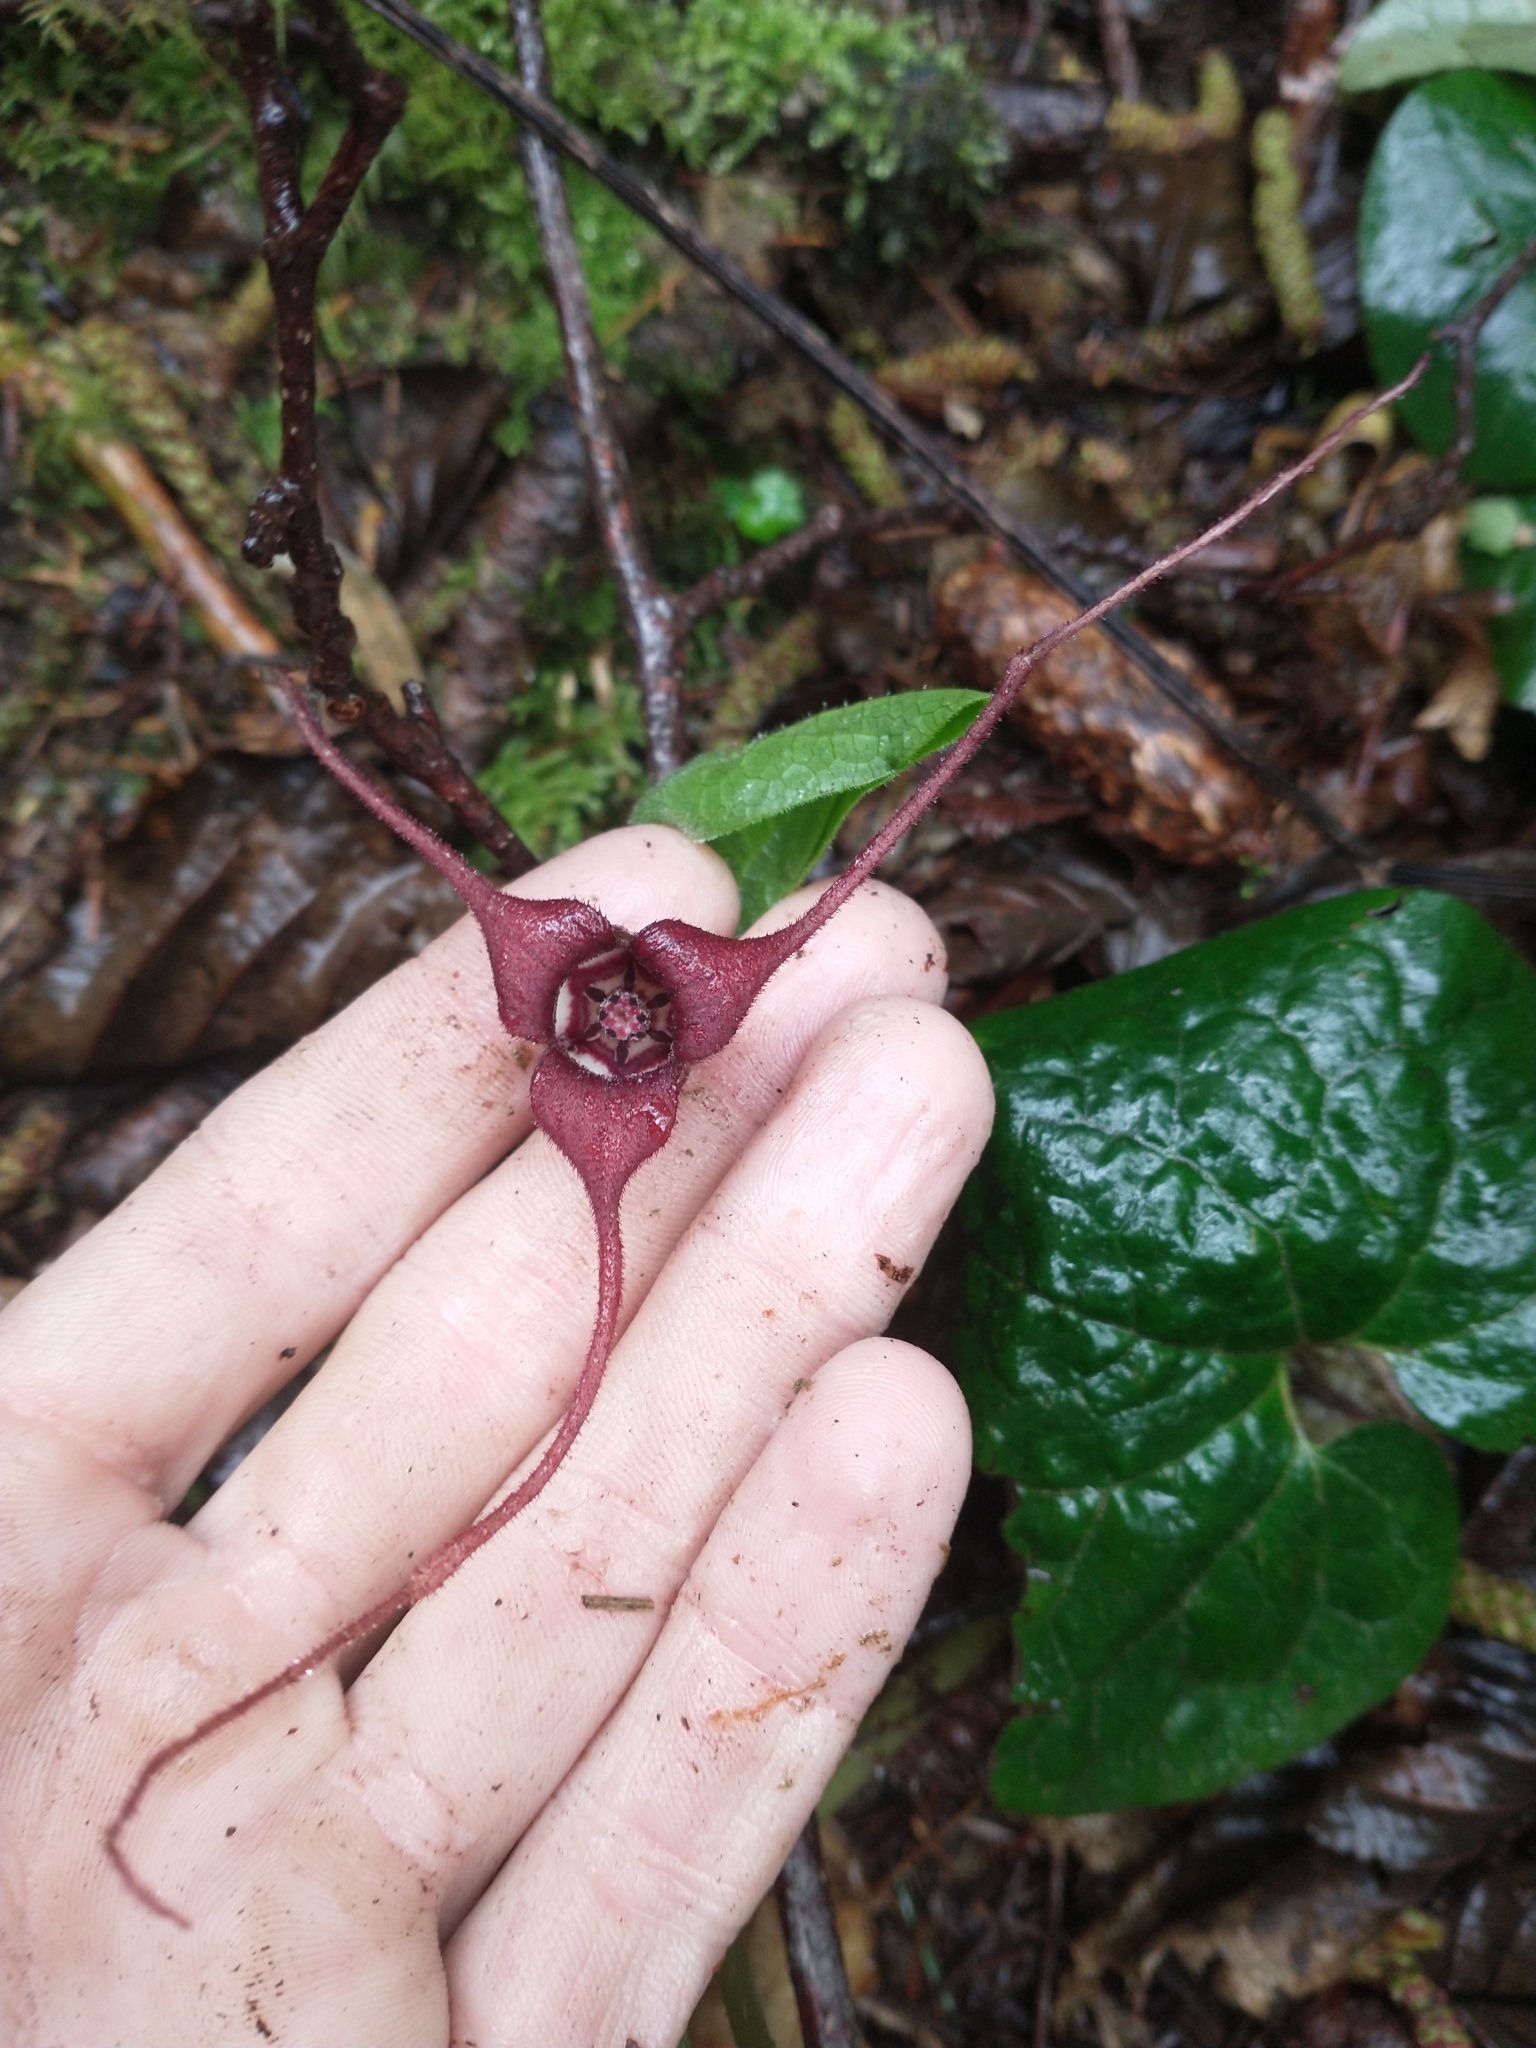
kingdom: Plantae
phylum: Tracheophyta
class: Magnoliopsida
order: Piperales
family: Aristolochiaceae
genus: Asarum
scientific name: Asarum caudatum
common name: Wild ginger
